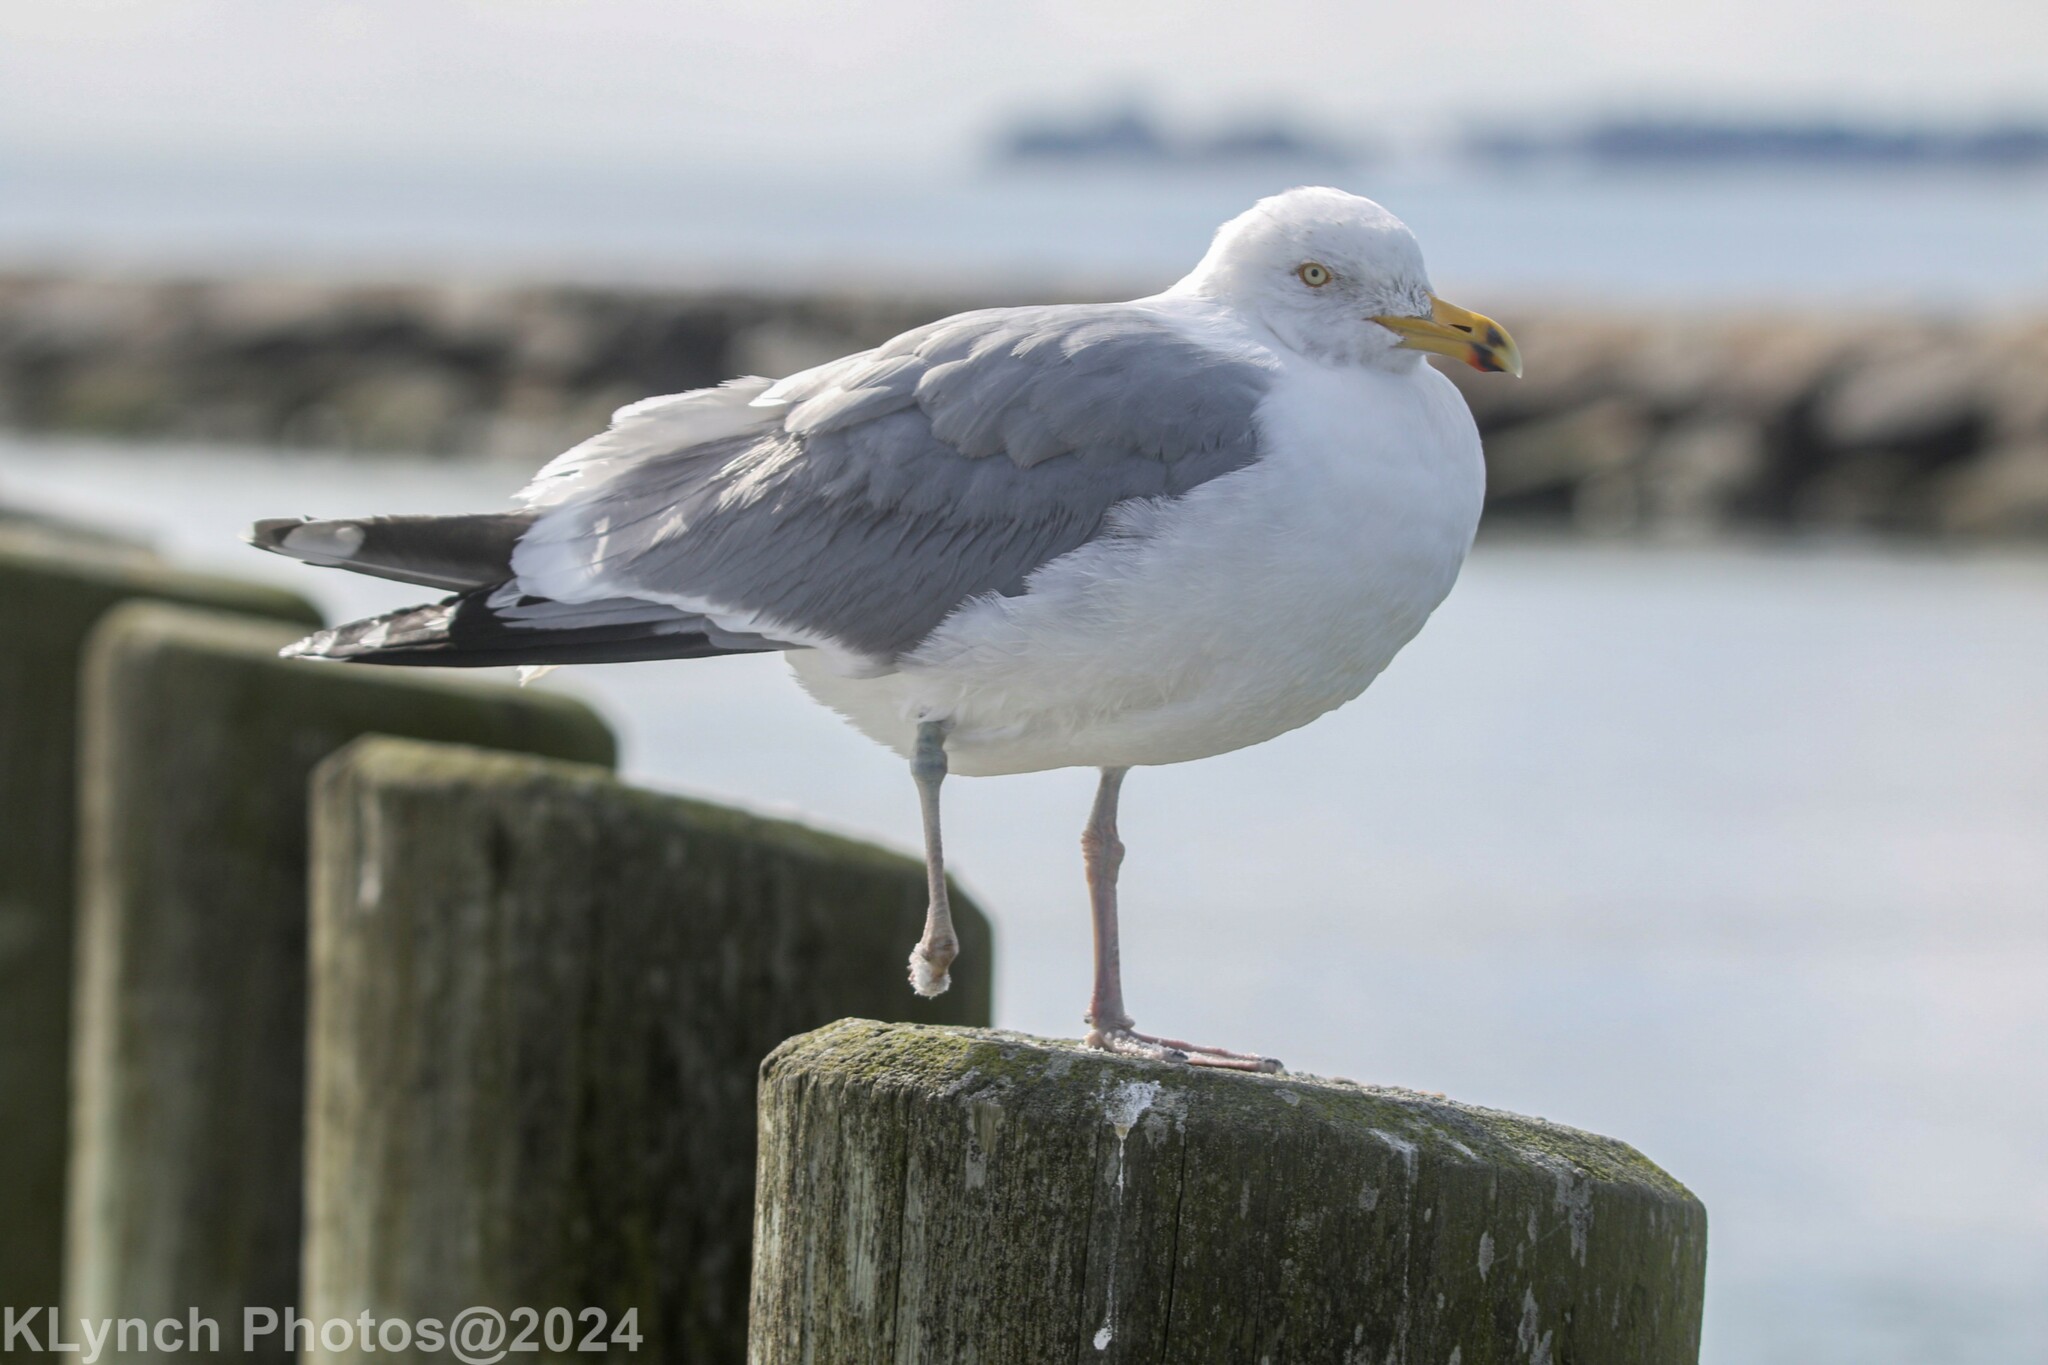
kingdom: Animalia
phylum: Chordata
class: Aves
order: Charadriiformes
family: Laridae
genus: Larus
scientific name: Larus argentatus
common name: Herring gull
